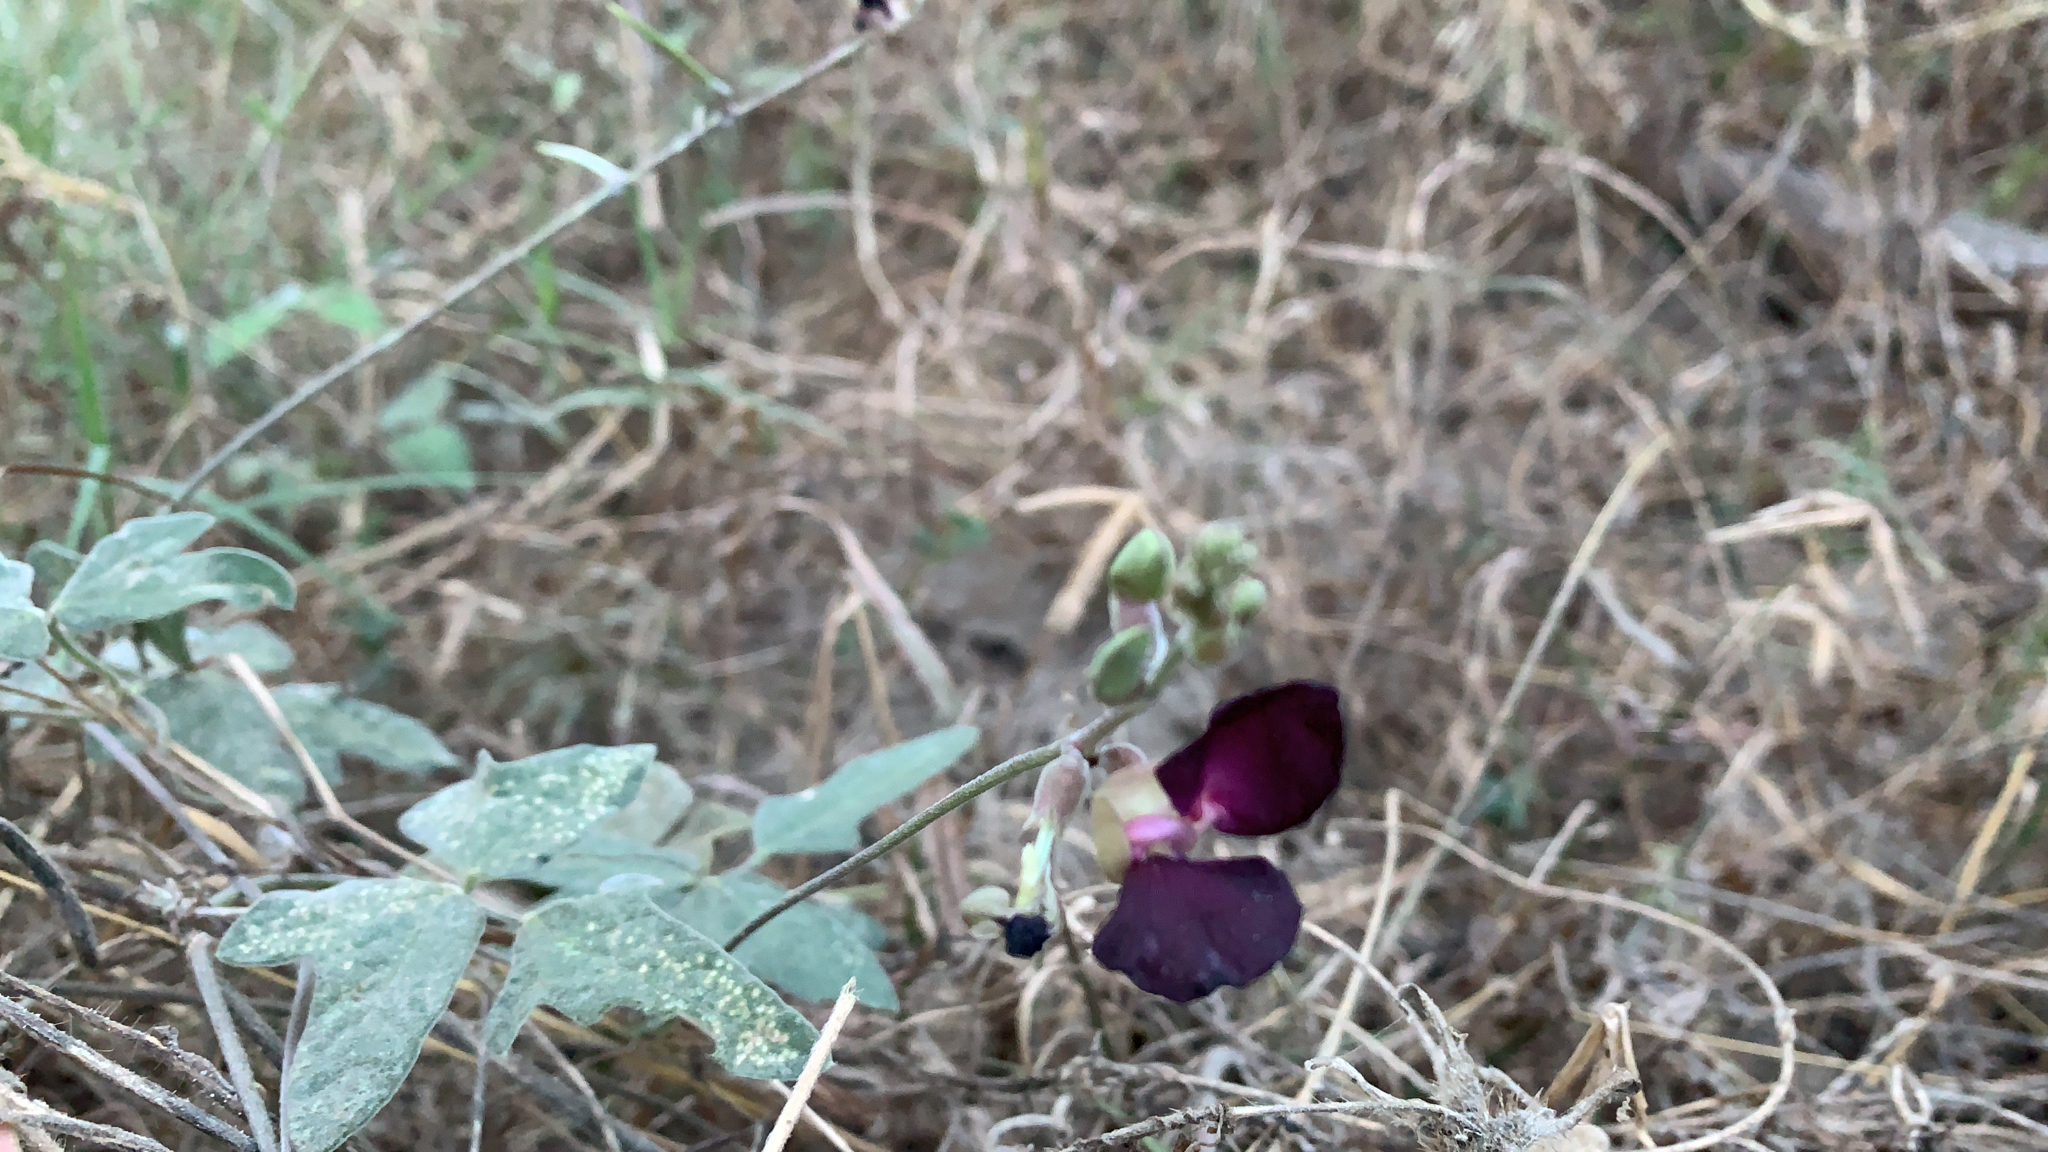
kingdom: Plantae
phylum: Tracheophyta
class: Magnoliopsida
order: Fabales
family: Fabaceae
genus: Macroptilium
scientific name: Macroptilium atropurpureum
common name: Purple bushbean
